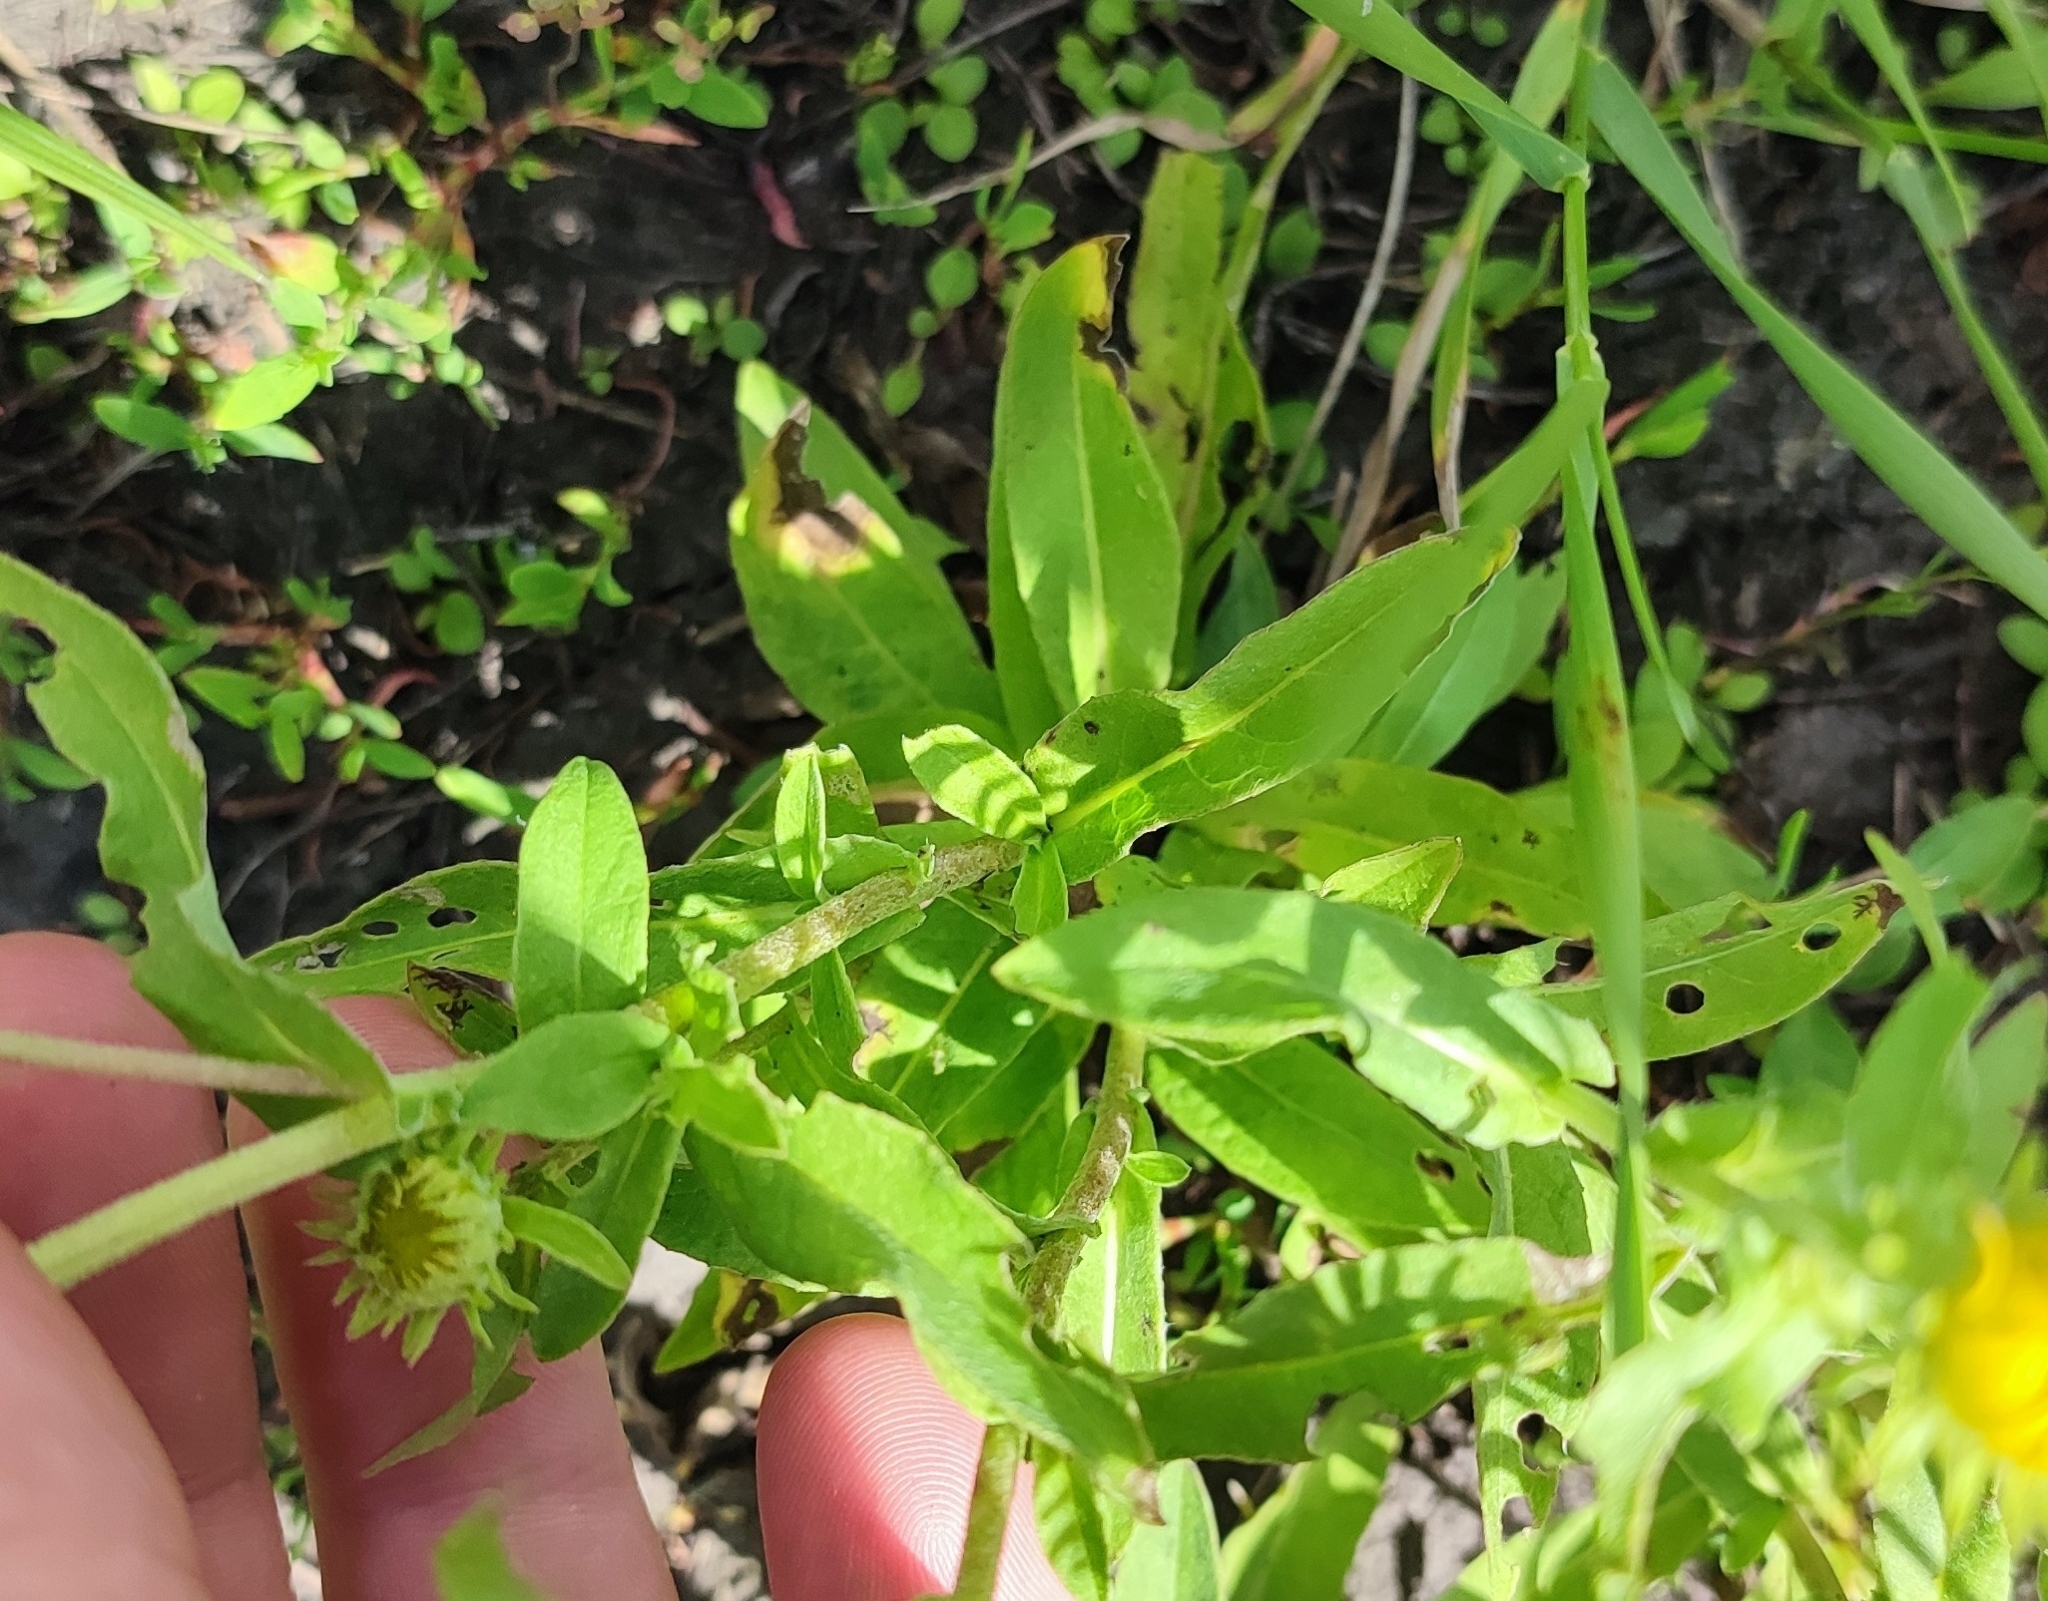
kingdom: Plantae
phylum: Tracheophyta
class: Magnoliopsida
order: Asterales
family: Asteraceae
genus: Pentanema
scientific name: Pentanema britannicum
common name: British elecampane
